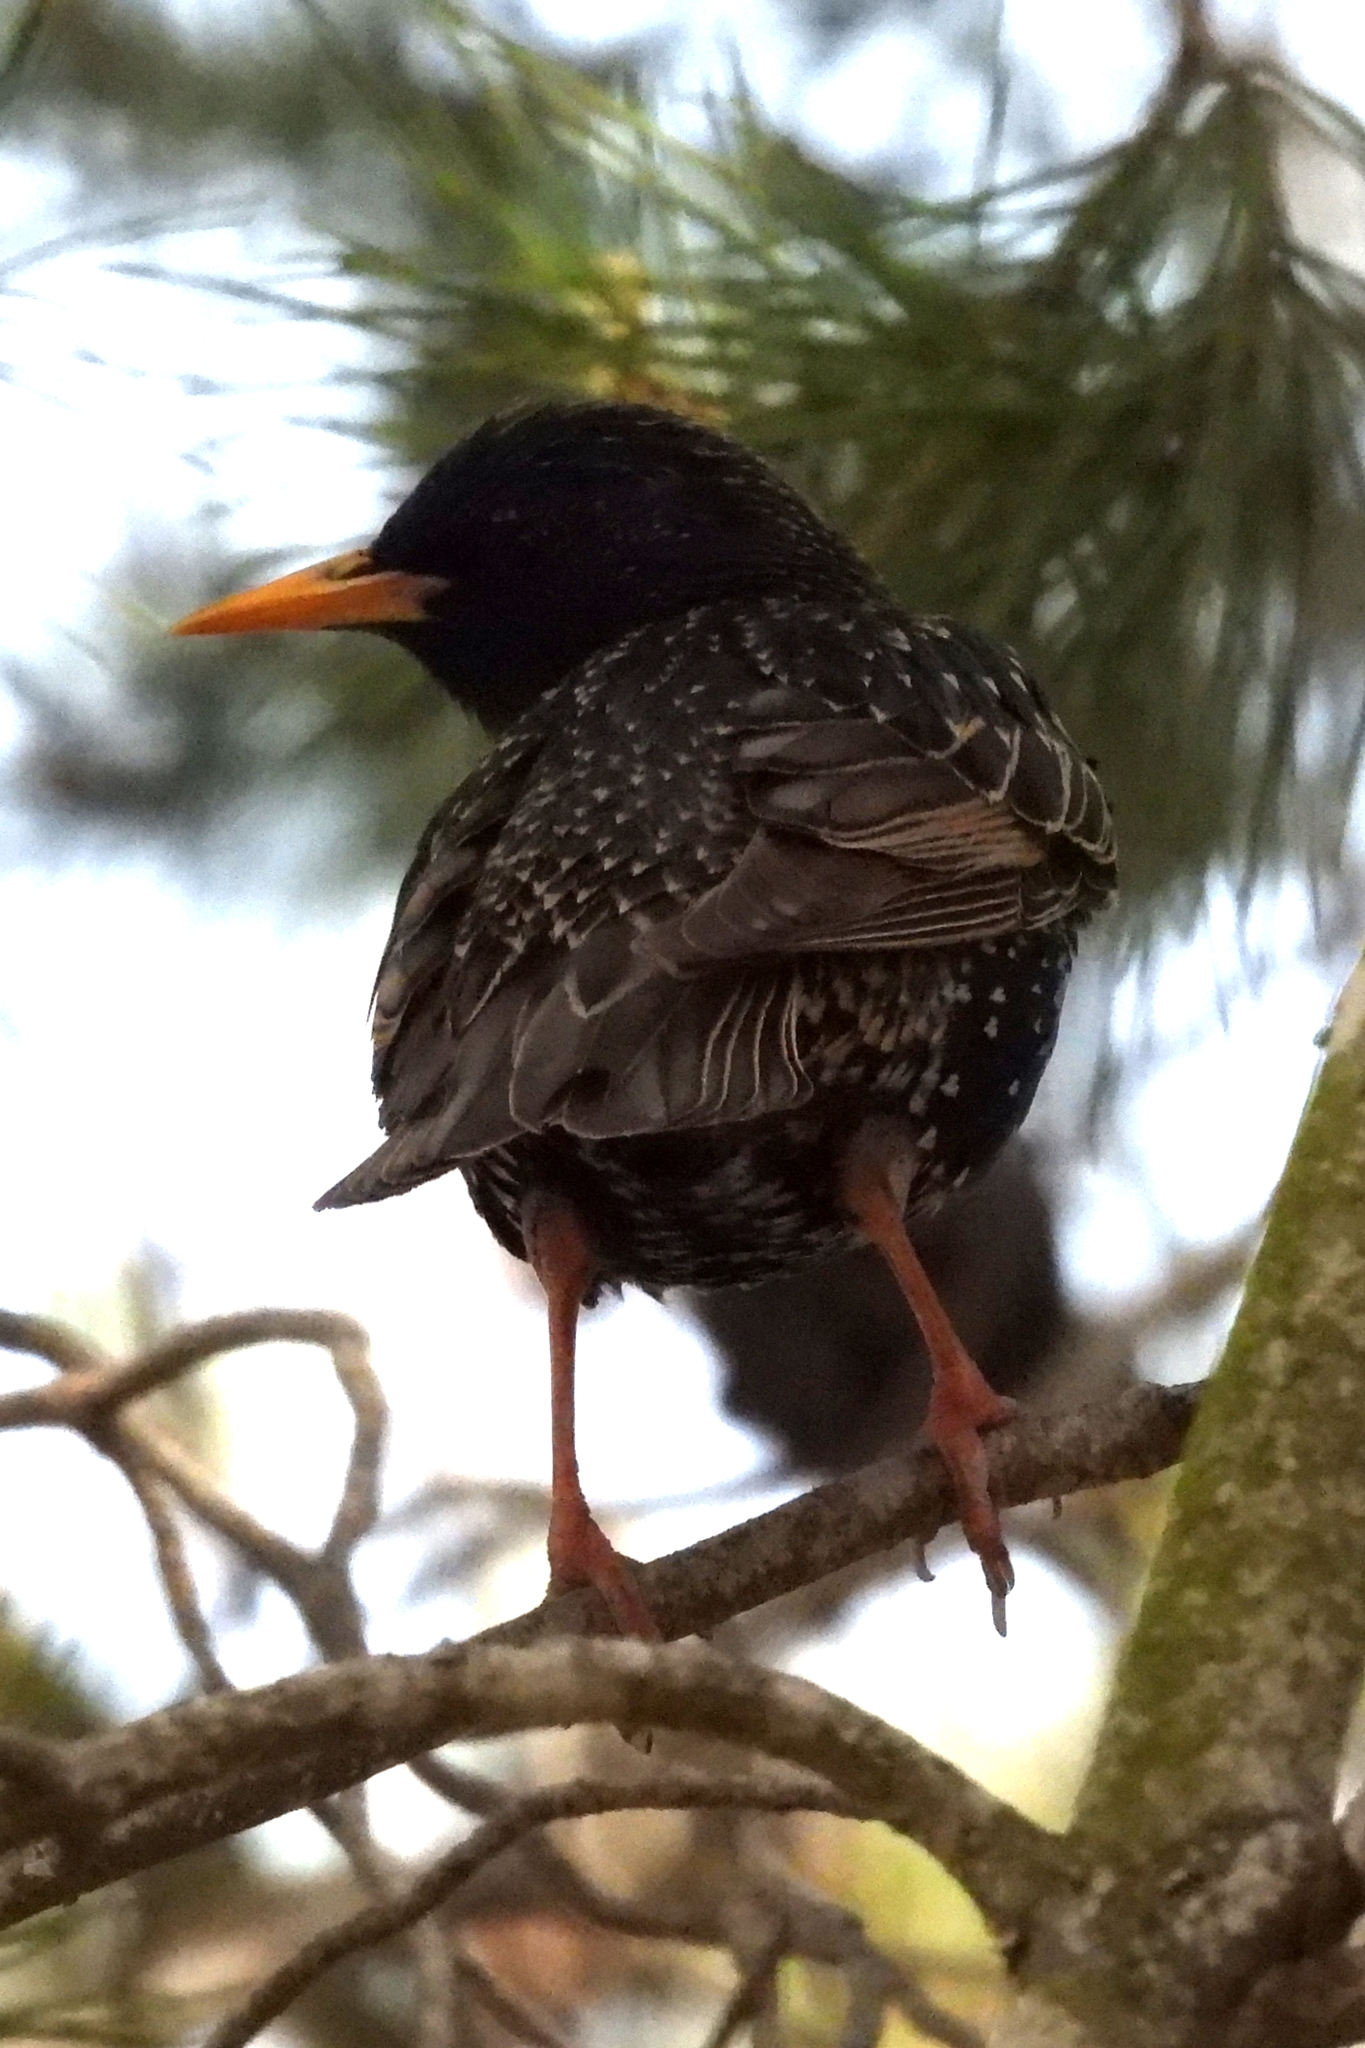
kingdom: Animalia
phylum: Chordata
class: Aves
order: Passeriformes
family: Sturnidae
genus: Sturnus
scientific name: Sturnus vulgaris
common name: Common starling
